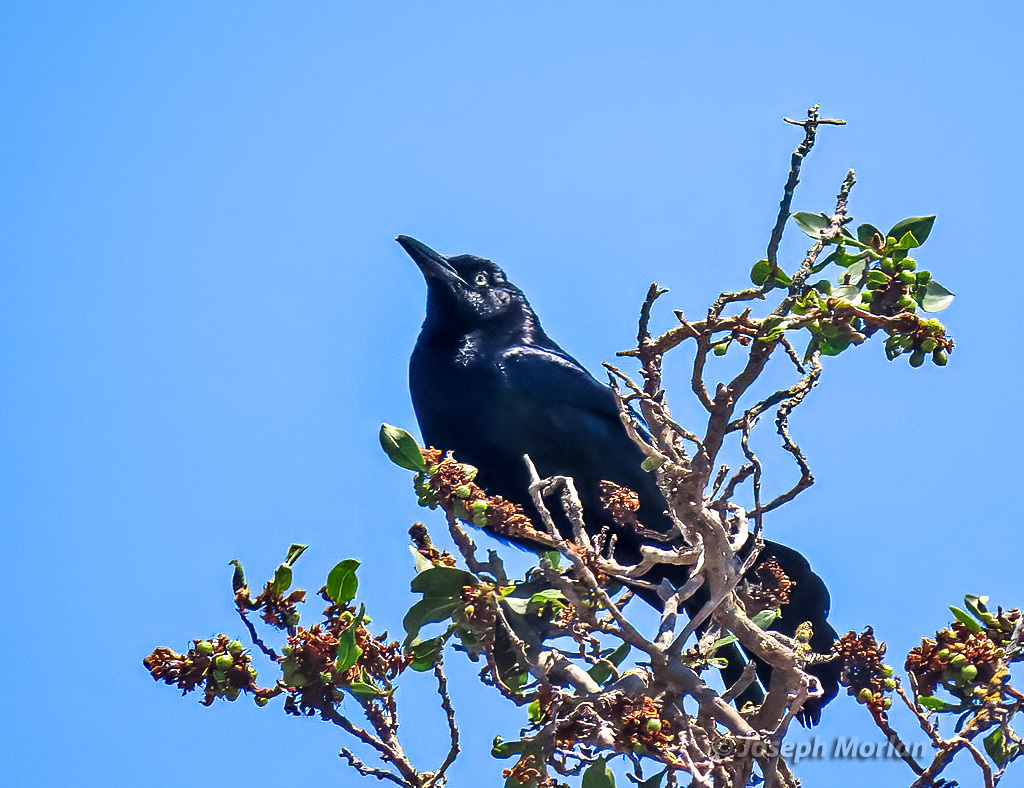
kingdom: Animalia
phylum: Chordata
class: Aves
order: Passeriformes
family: Icteridae
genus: Quiscalus
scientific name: Quiscalus mexicanus
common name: Great-tailed grackle
